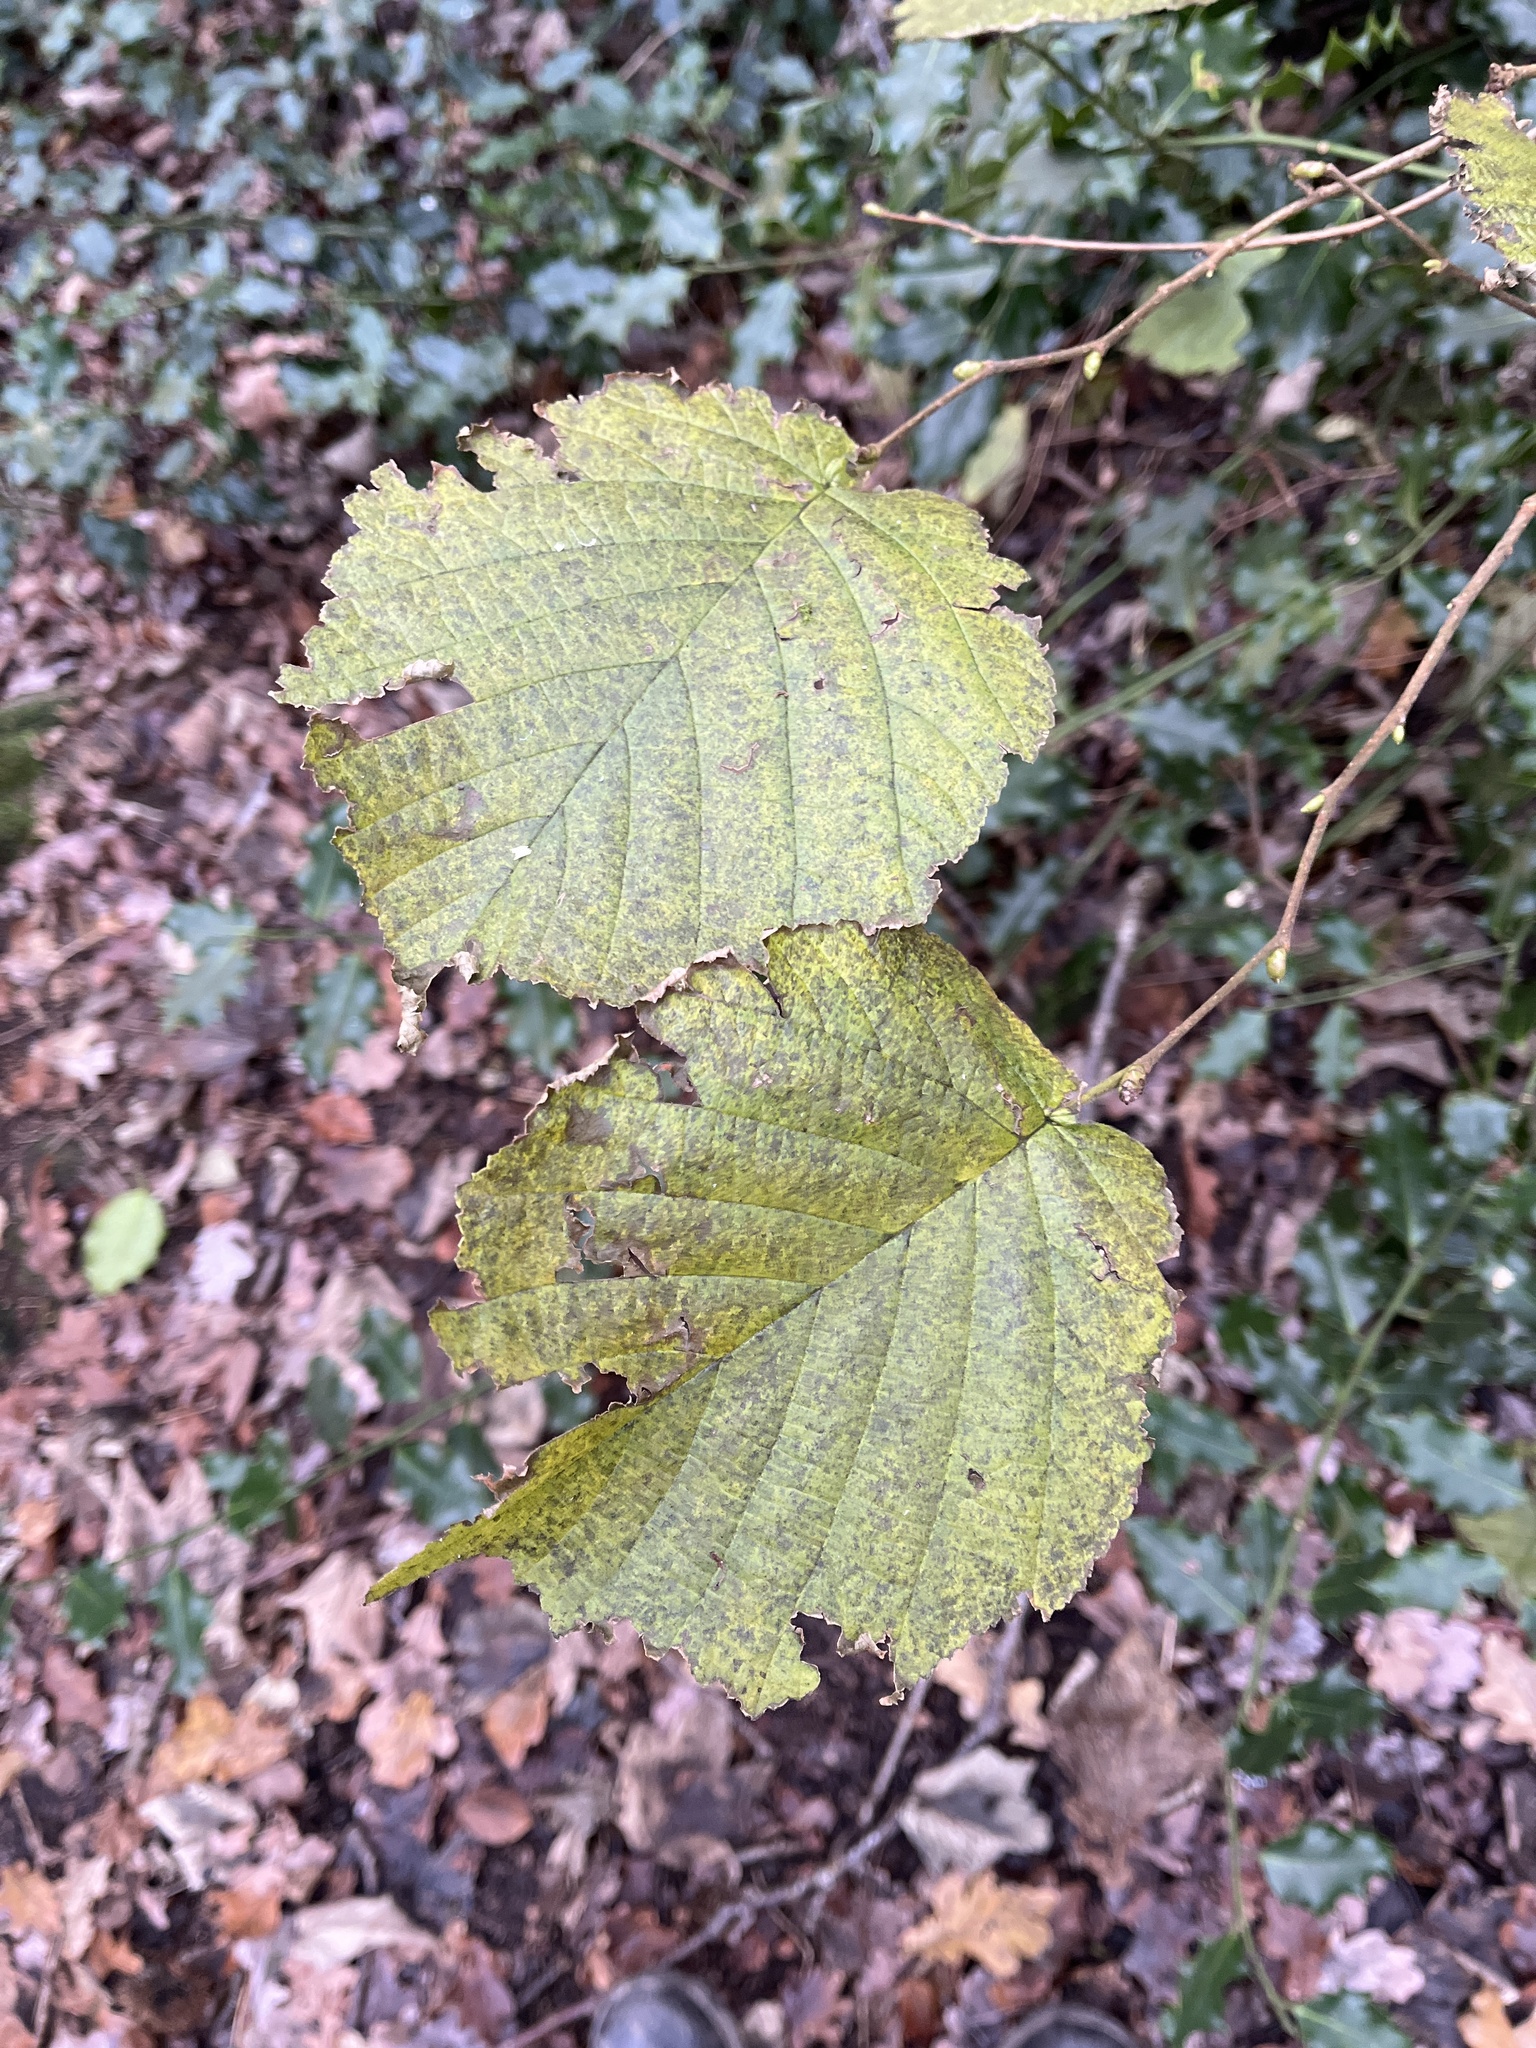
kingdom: Plantae
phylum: Tracheophyta
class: Magnoliopsida
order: Fagales
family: Betulaceae
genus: Corylus
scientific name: Corylus avellana
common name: European hazel
